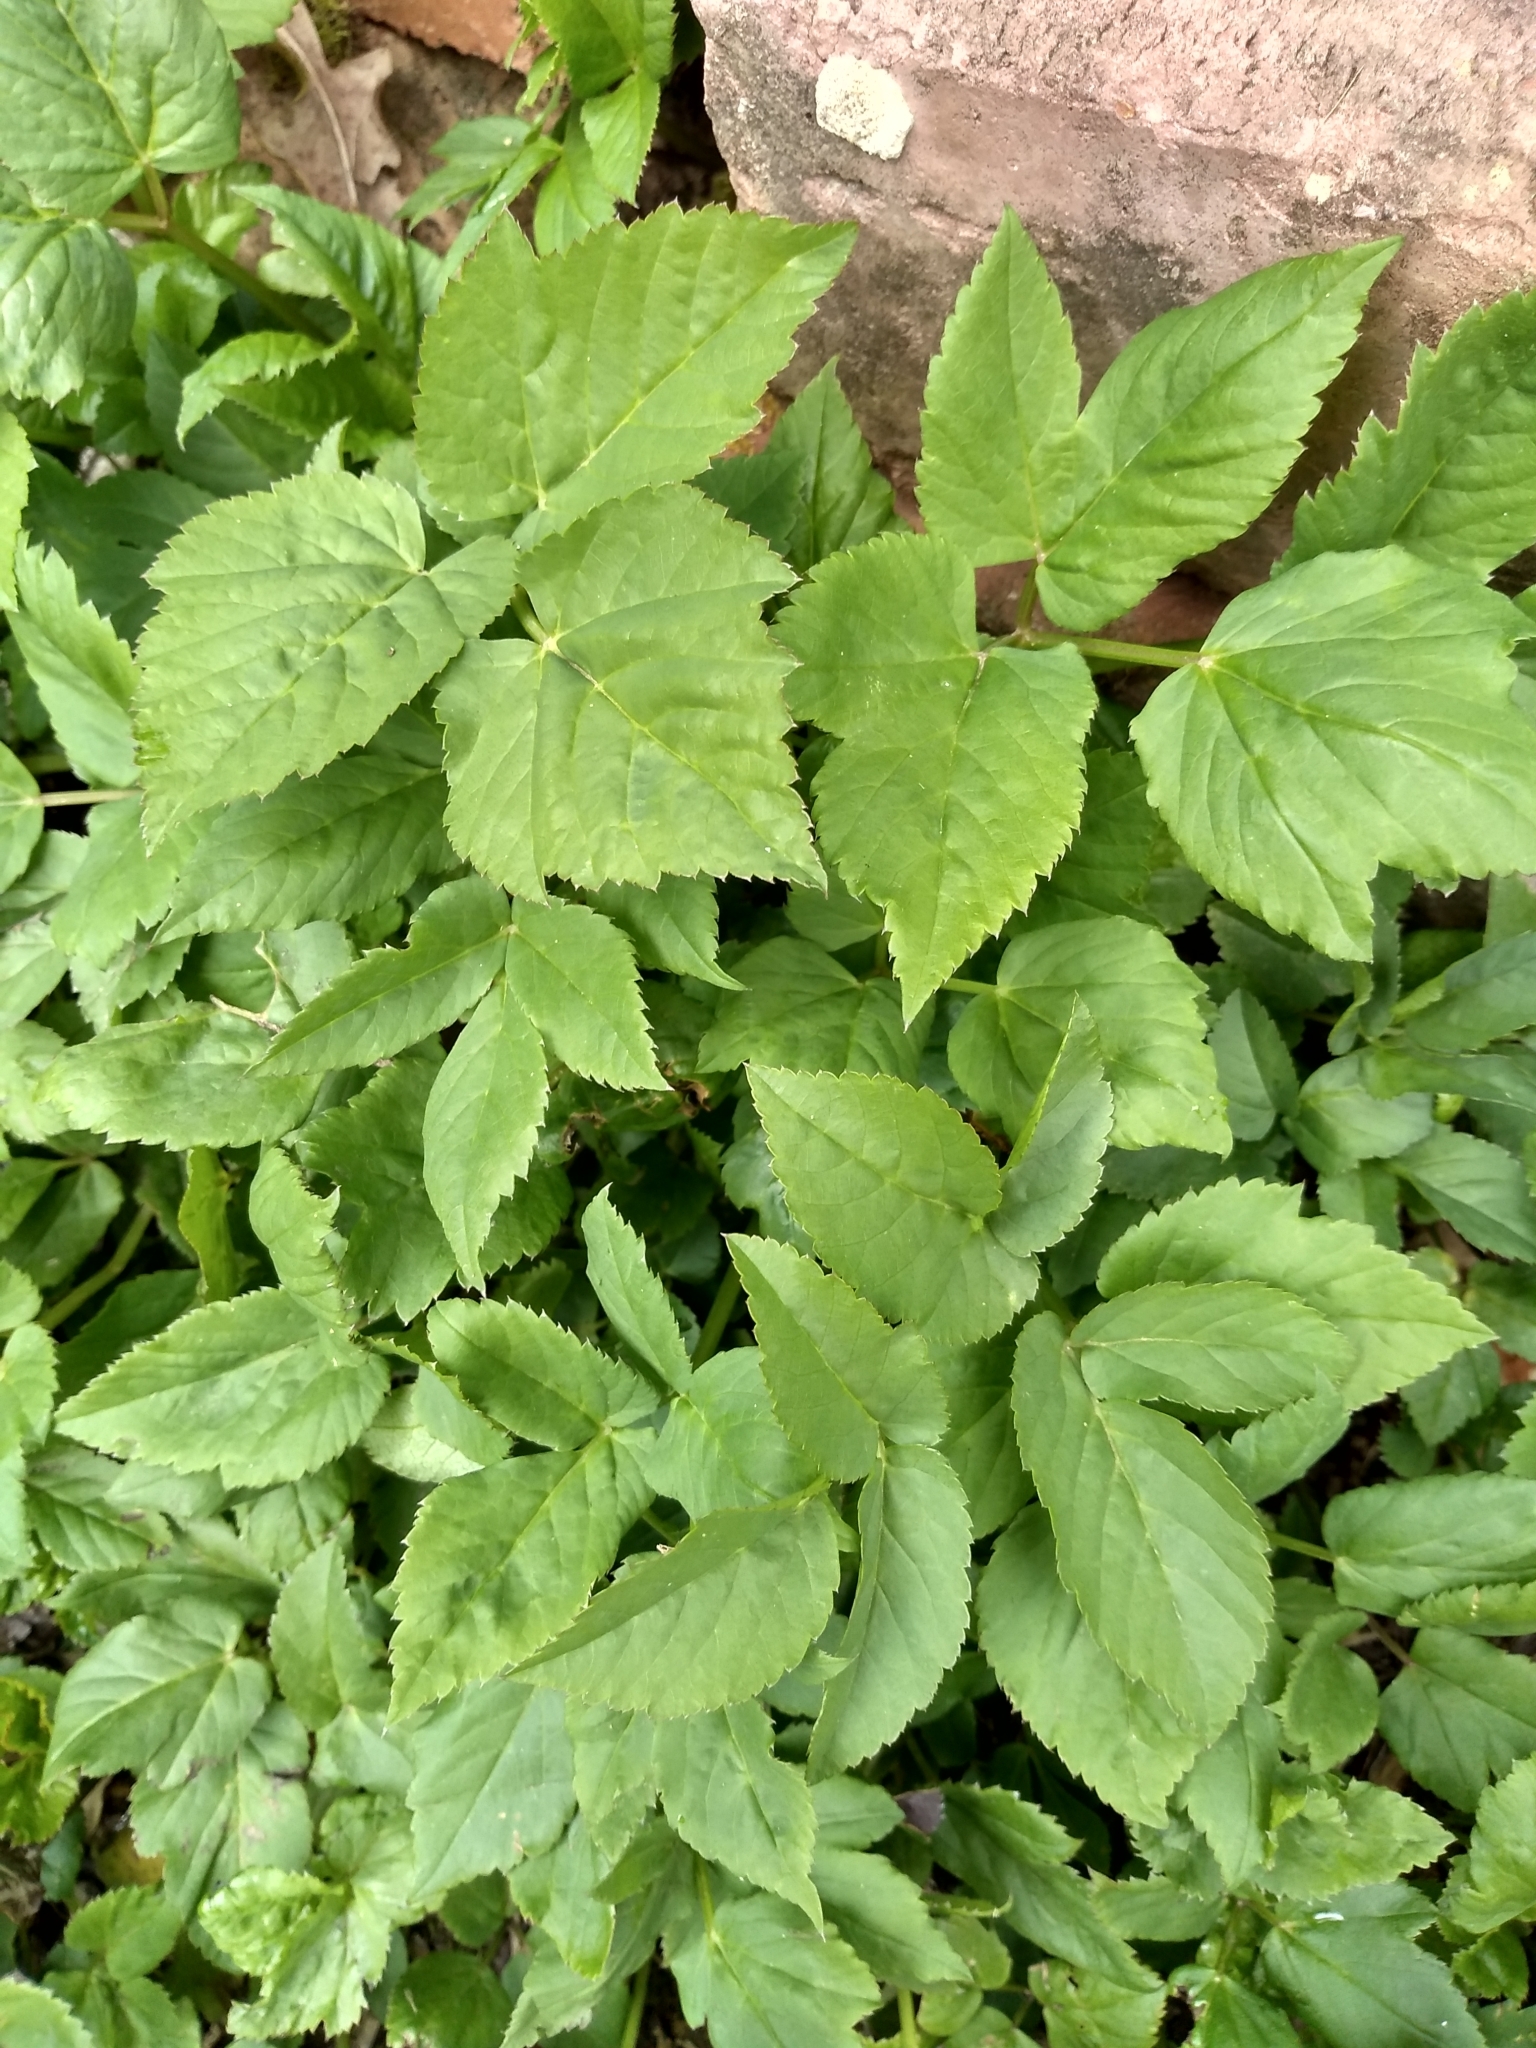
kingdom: Plantae
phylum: Tracheophyta
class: Magnoliopsida
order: Apiales
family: Apiaceae
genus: Aegopodium
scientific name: Aegopodium podagraria
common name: Ground-elder
